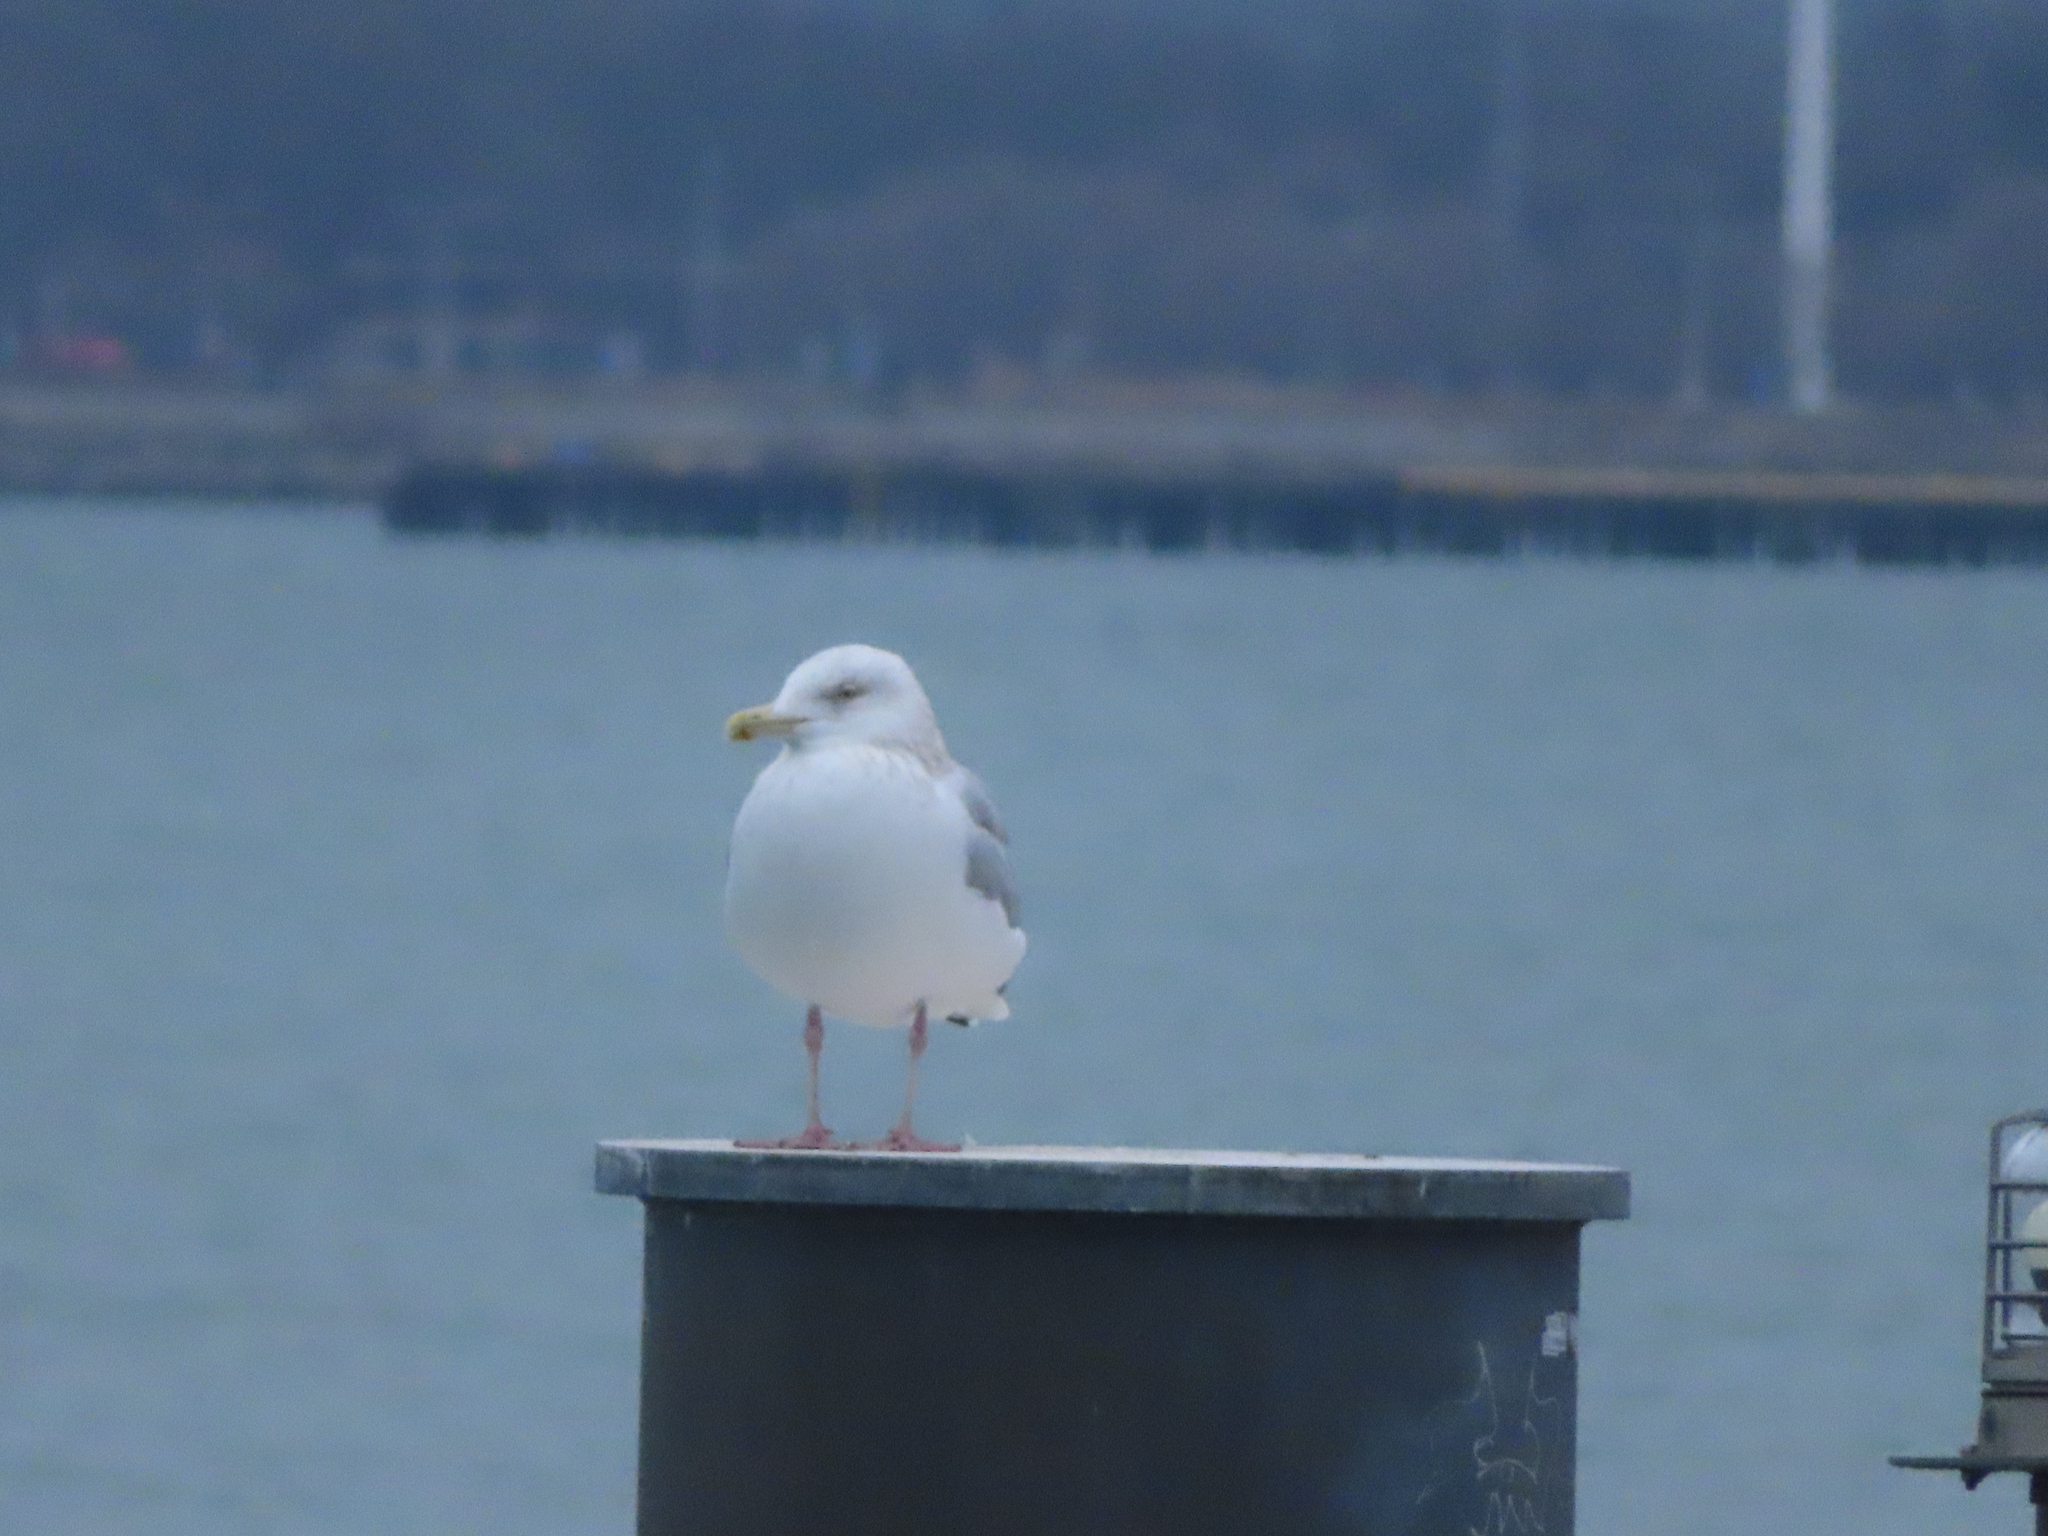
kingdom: Animalia
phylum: Chordata
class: Aves
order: Charadriiformes
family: Laridae
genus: Larus
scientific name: Larus argentatus
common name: Herring gull
